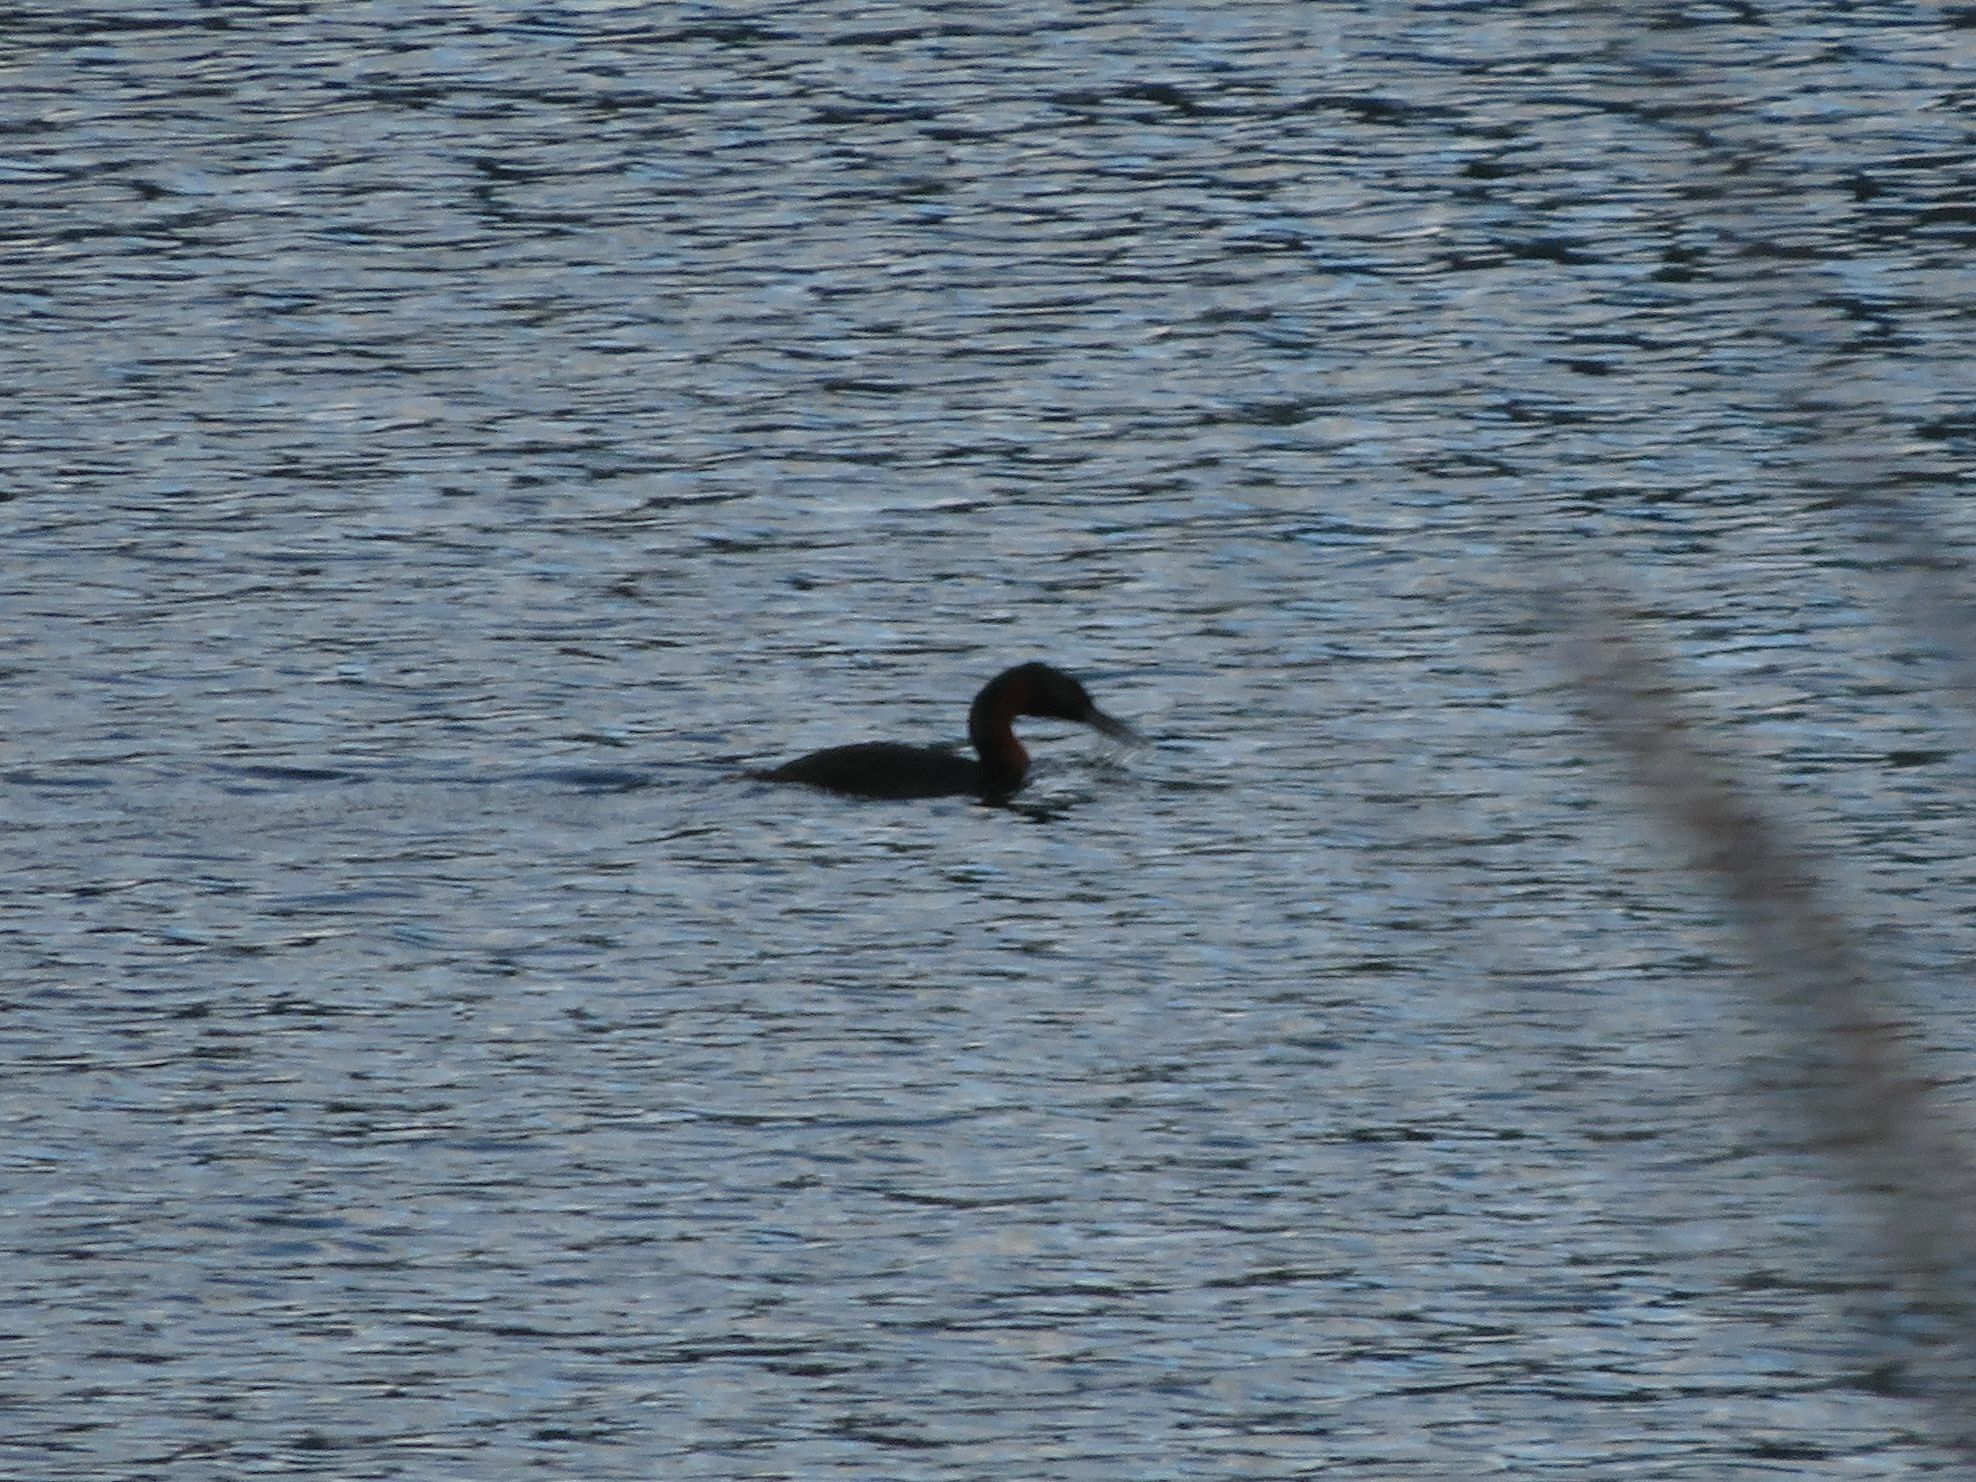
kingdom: Animalia
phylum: Chordata
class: Aves
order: Podicipediformes
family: Podicipedidae
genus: Podiceps
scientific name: Podiceps major
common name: Great grebe
